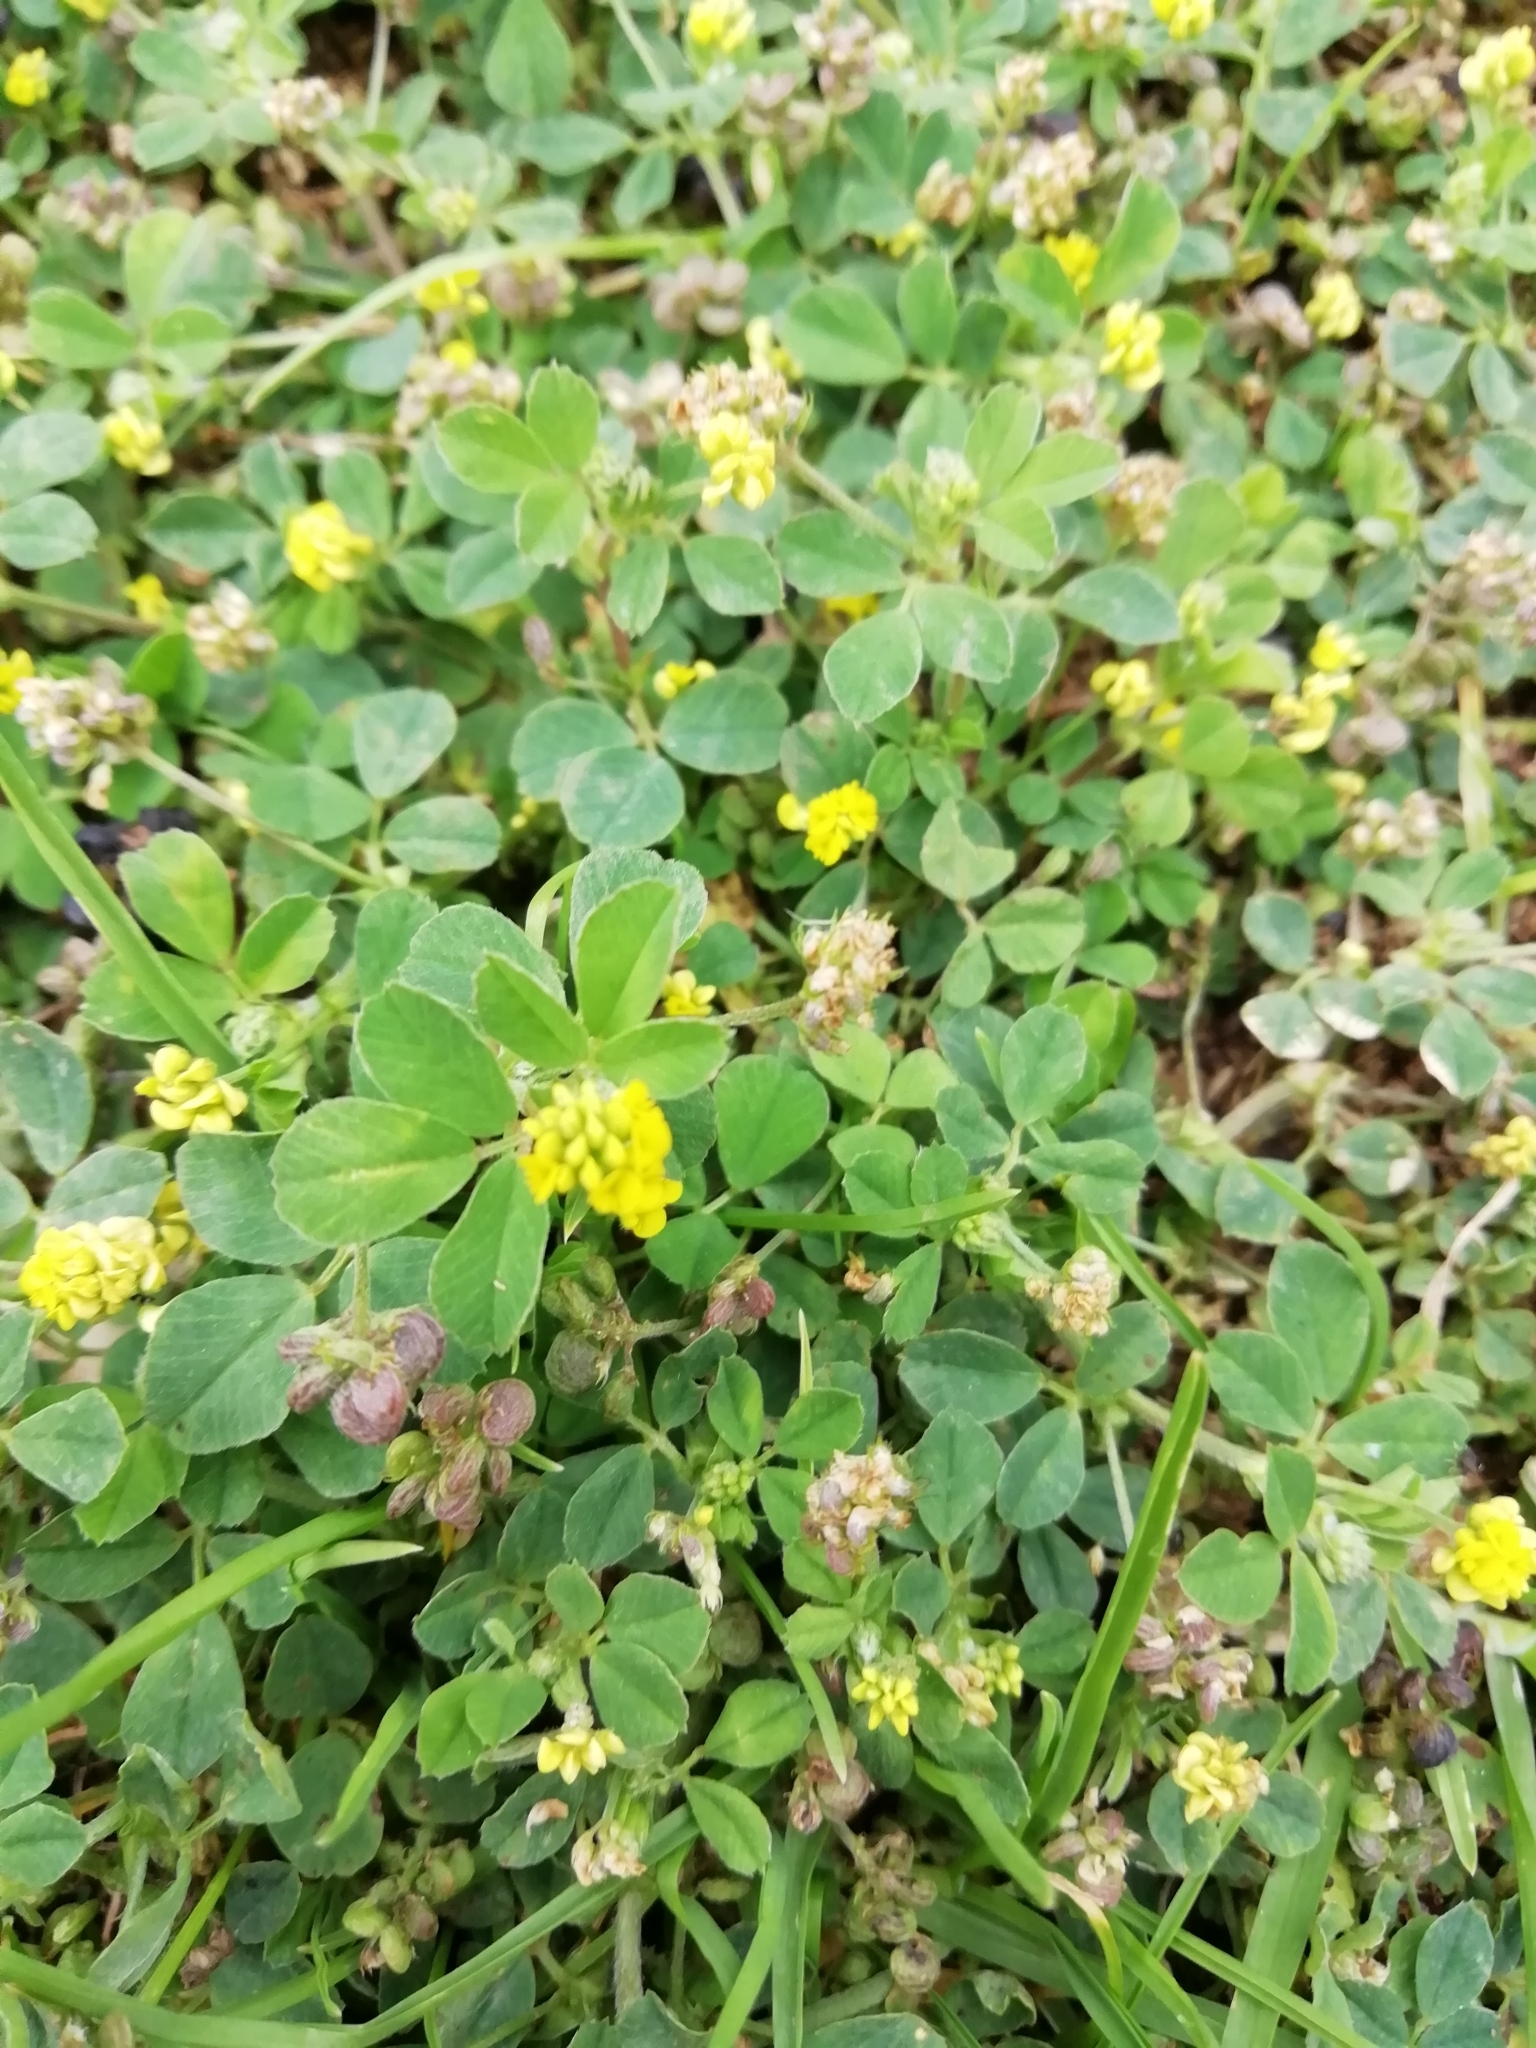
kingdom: Plantae
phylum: Tracheophyta
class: Magnoliopsida
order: Fabales
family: Fabaceae
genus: Medicago
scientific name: Medicago lupulina
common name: Black medick
